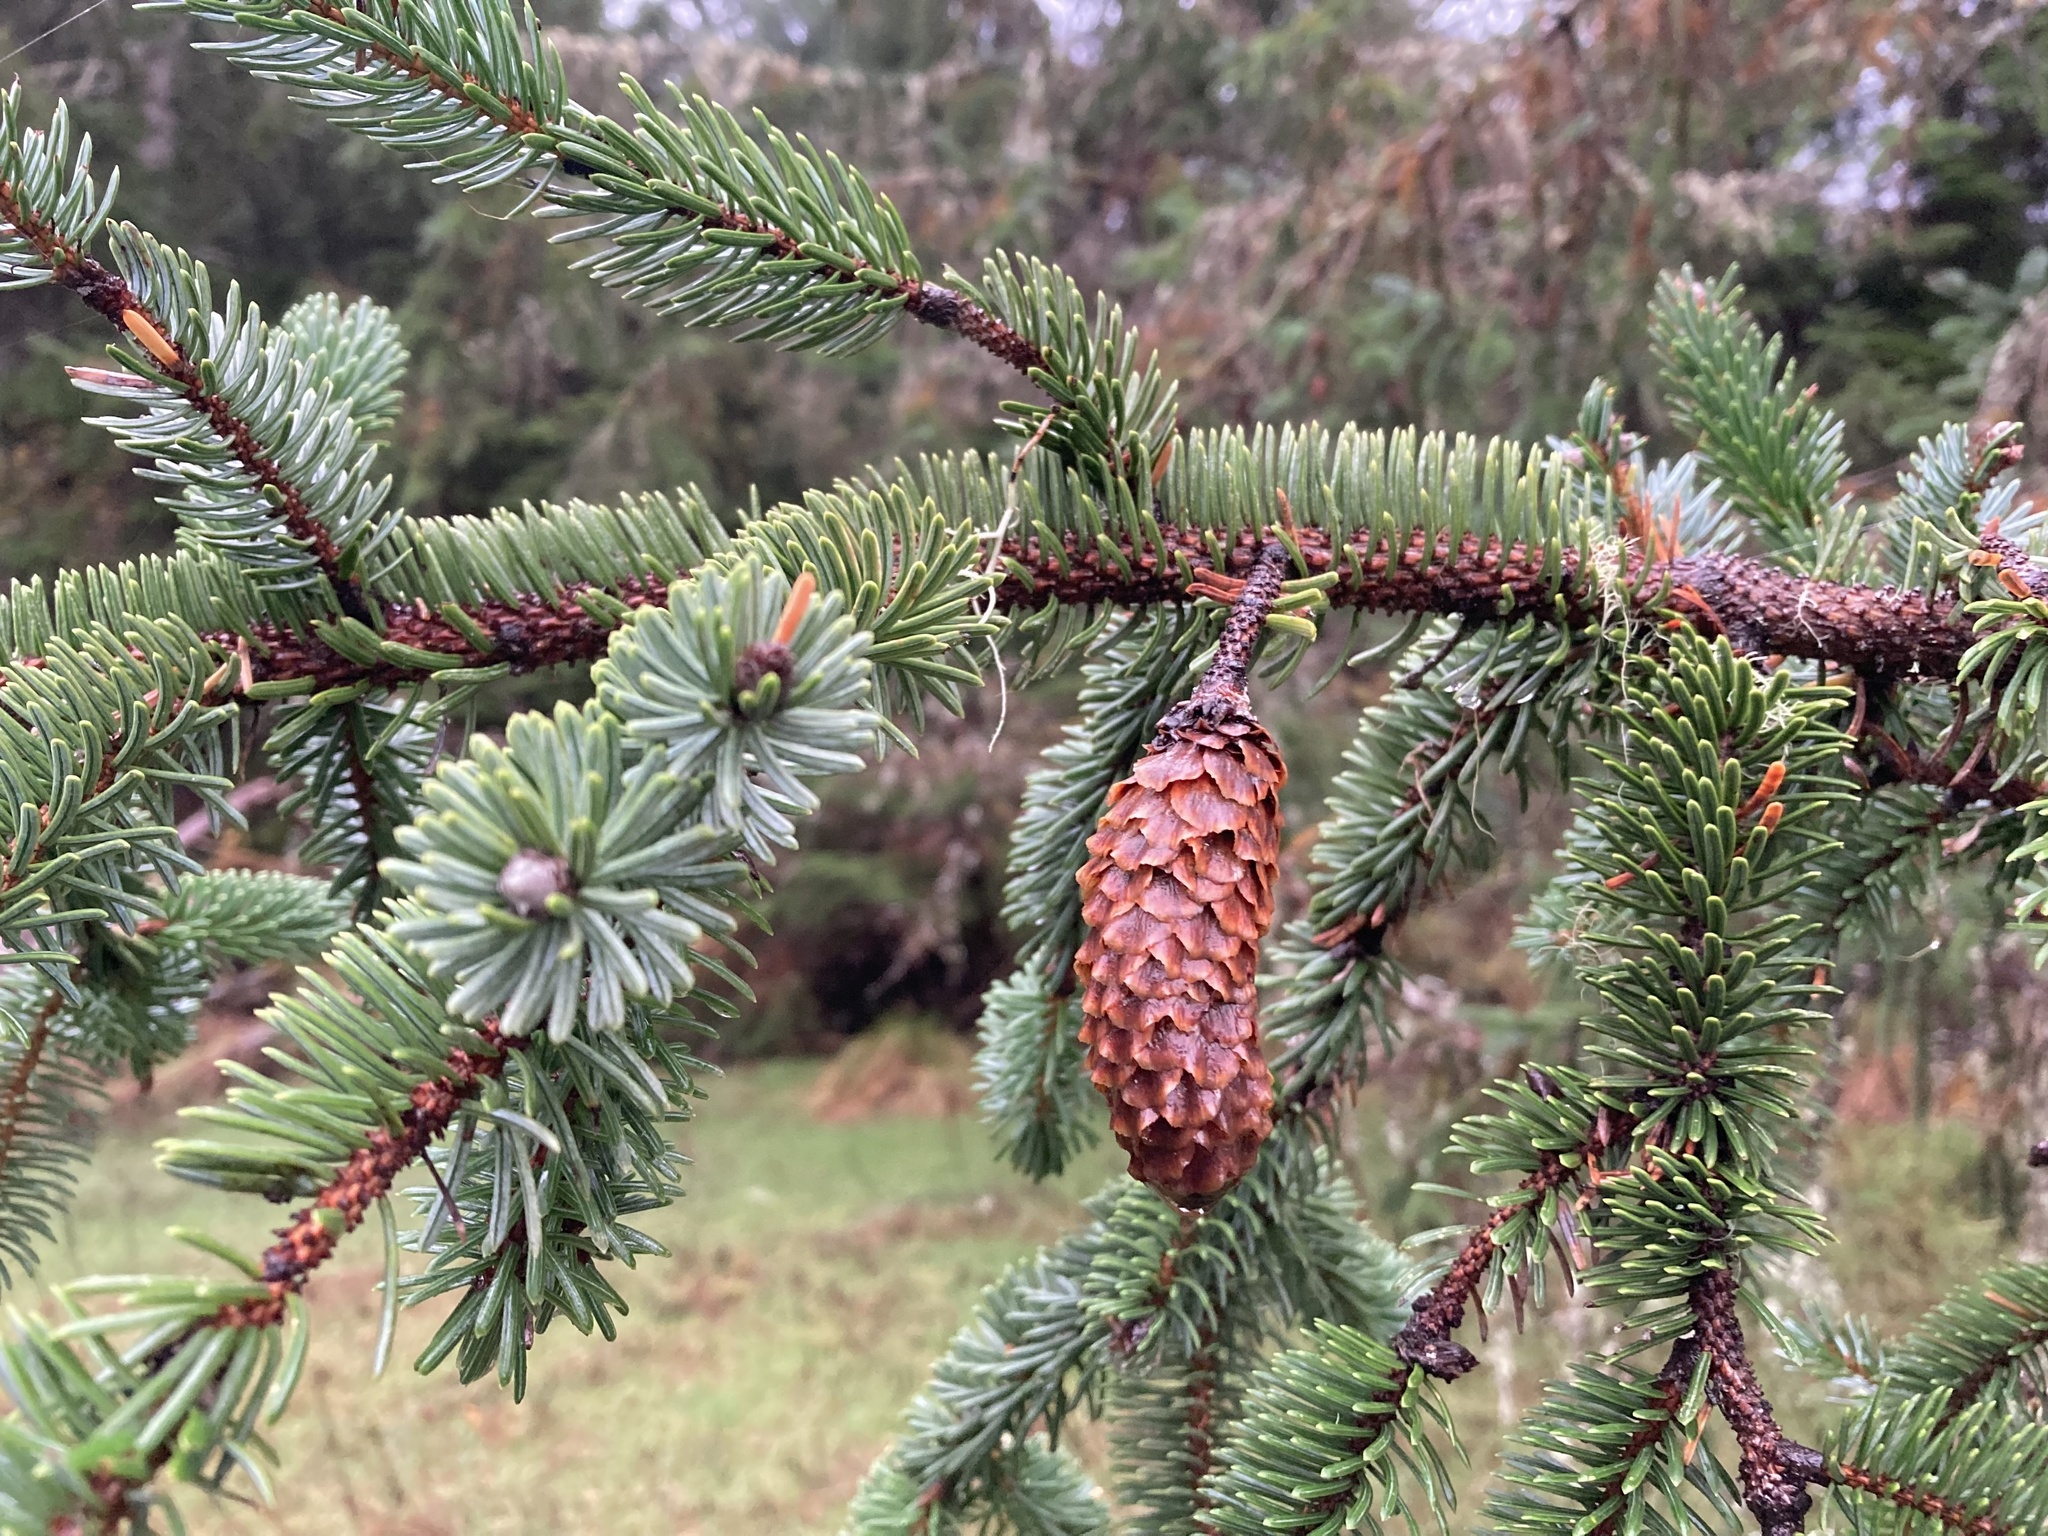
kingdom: Plantae
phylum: Tracheophyta
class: Pinopsida
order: Pinales
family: Pinaceae
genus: Picea
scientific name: Picea sitchensis
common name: Sitka spruce
